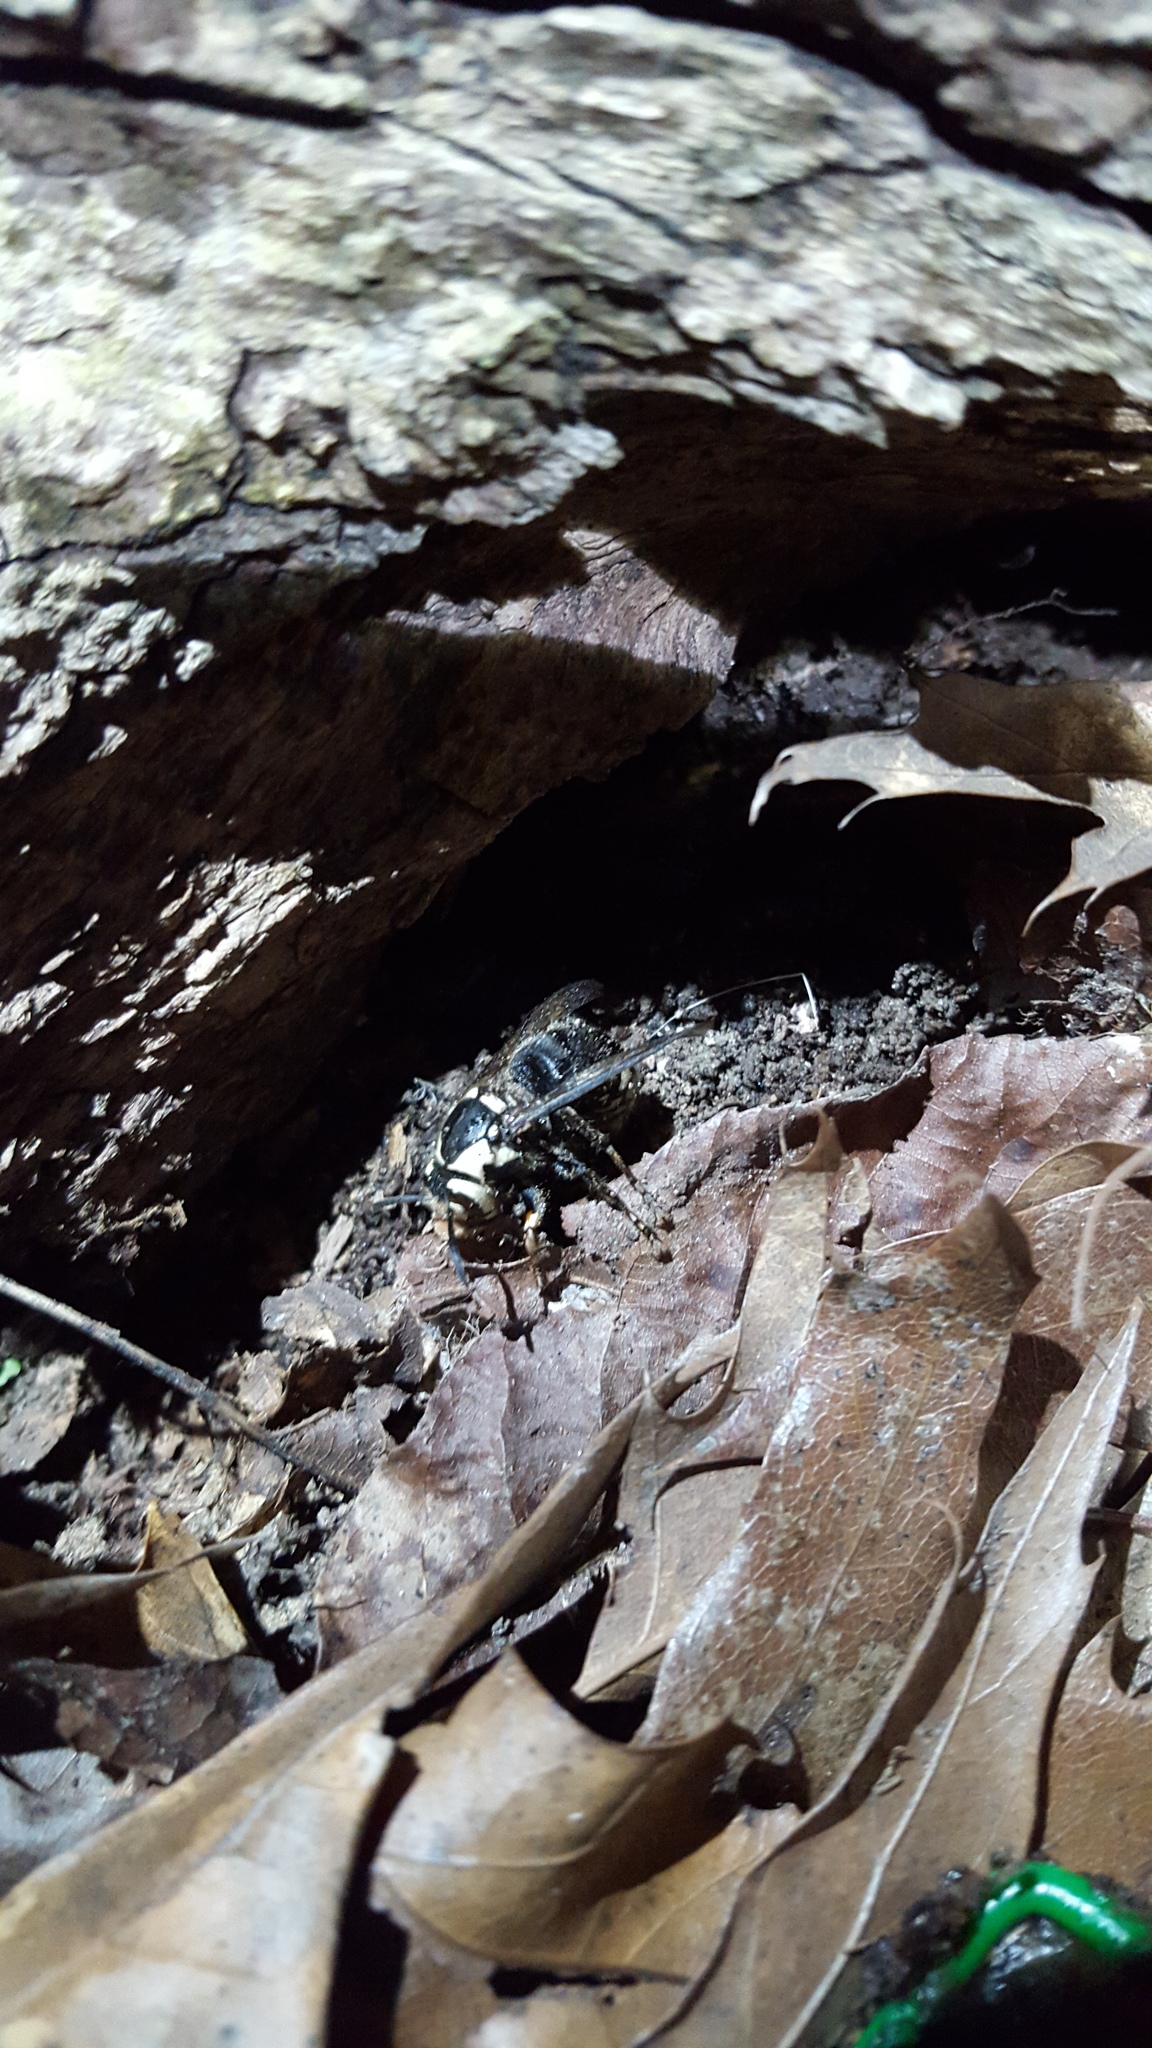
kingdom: Animalia
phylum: Arthropoda
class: Insecta
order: Hymenoptera
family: Vespidae
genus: Dolichovespula
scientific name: Dolichovespula maculata
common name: Bald-faced hornet
